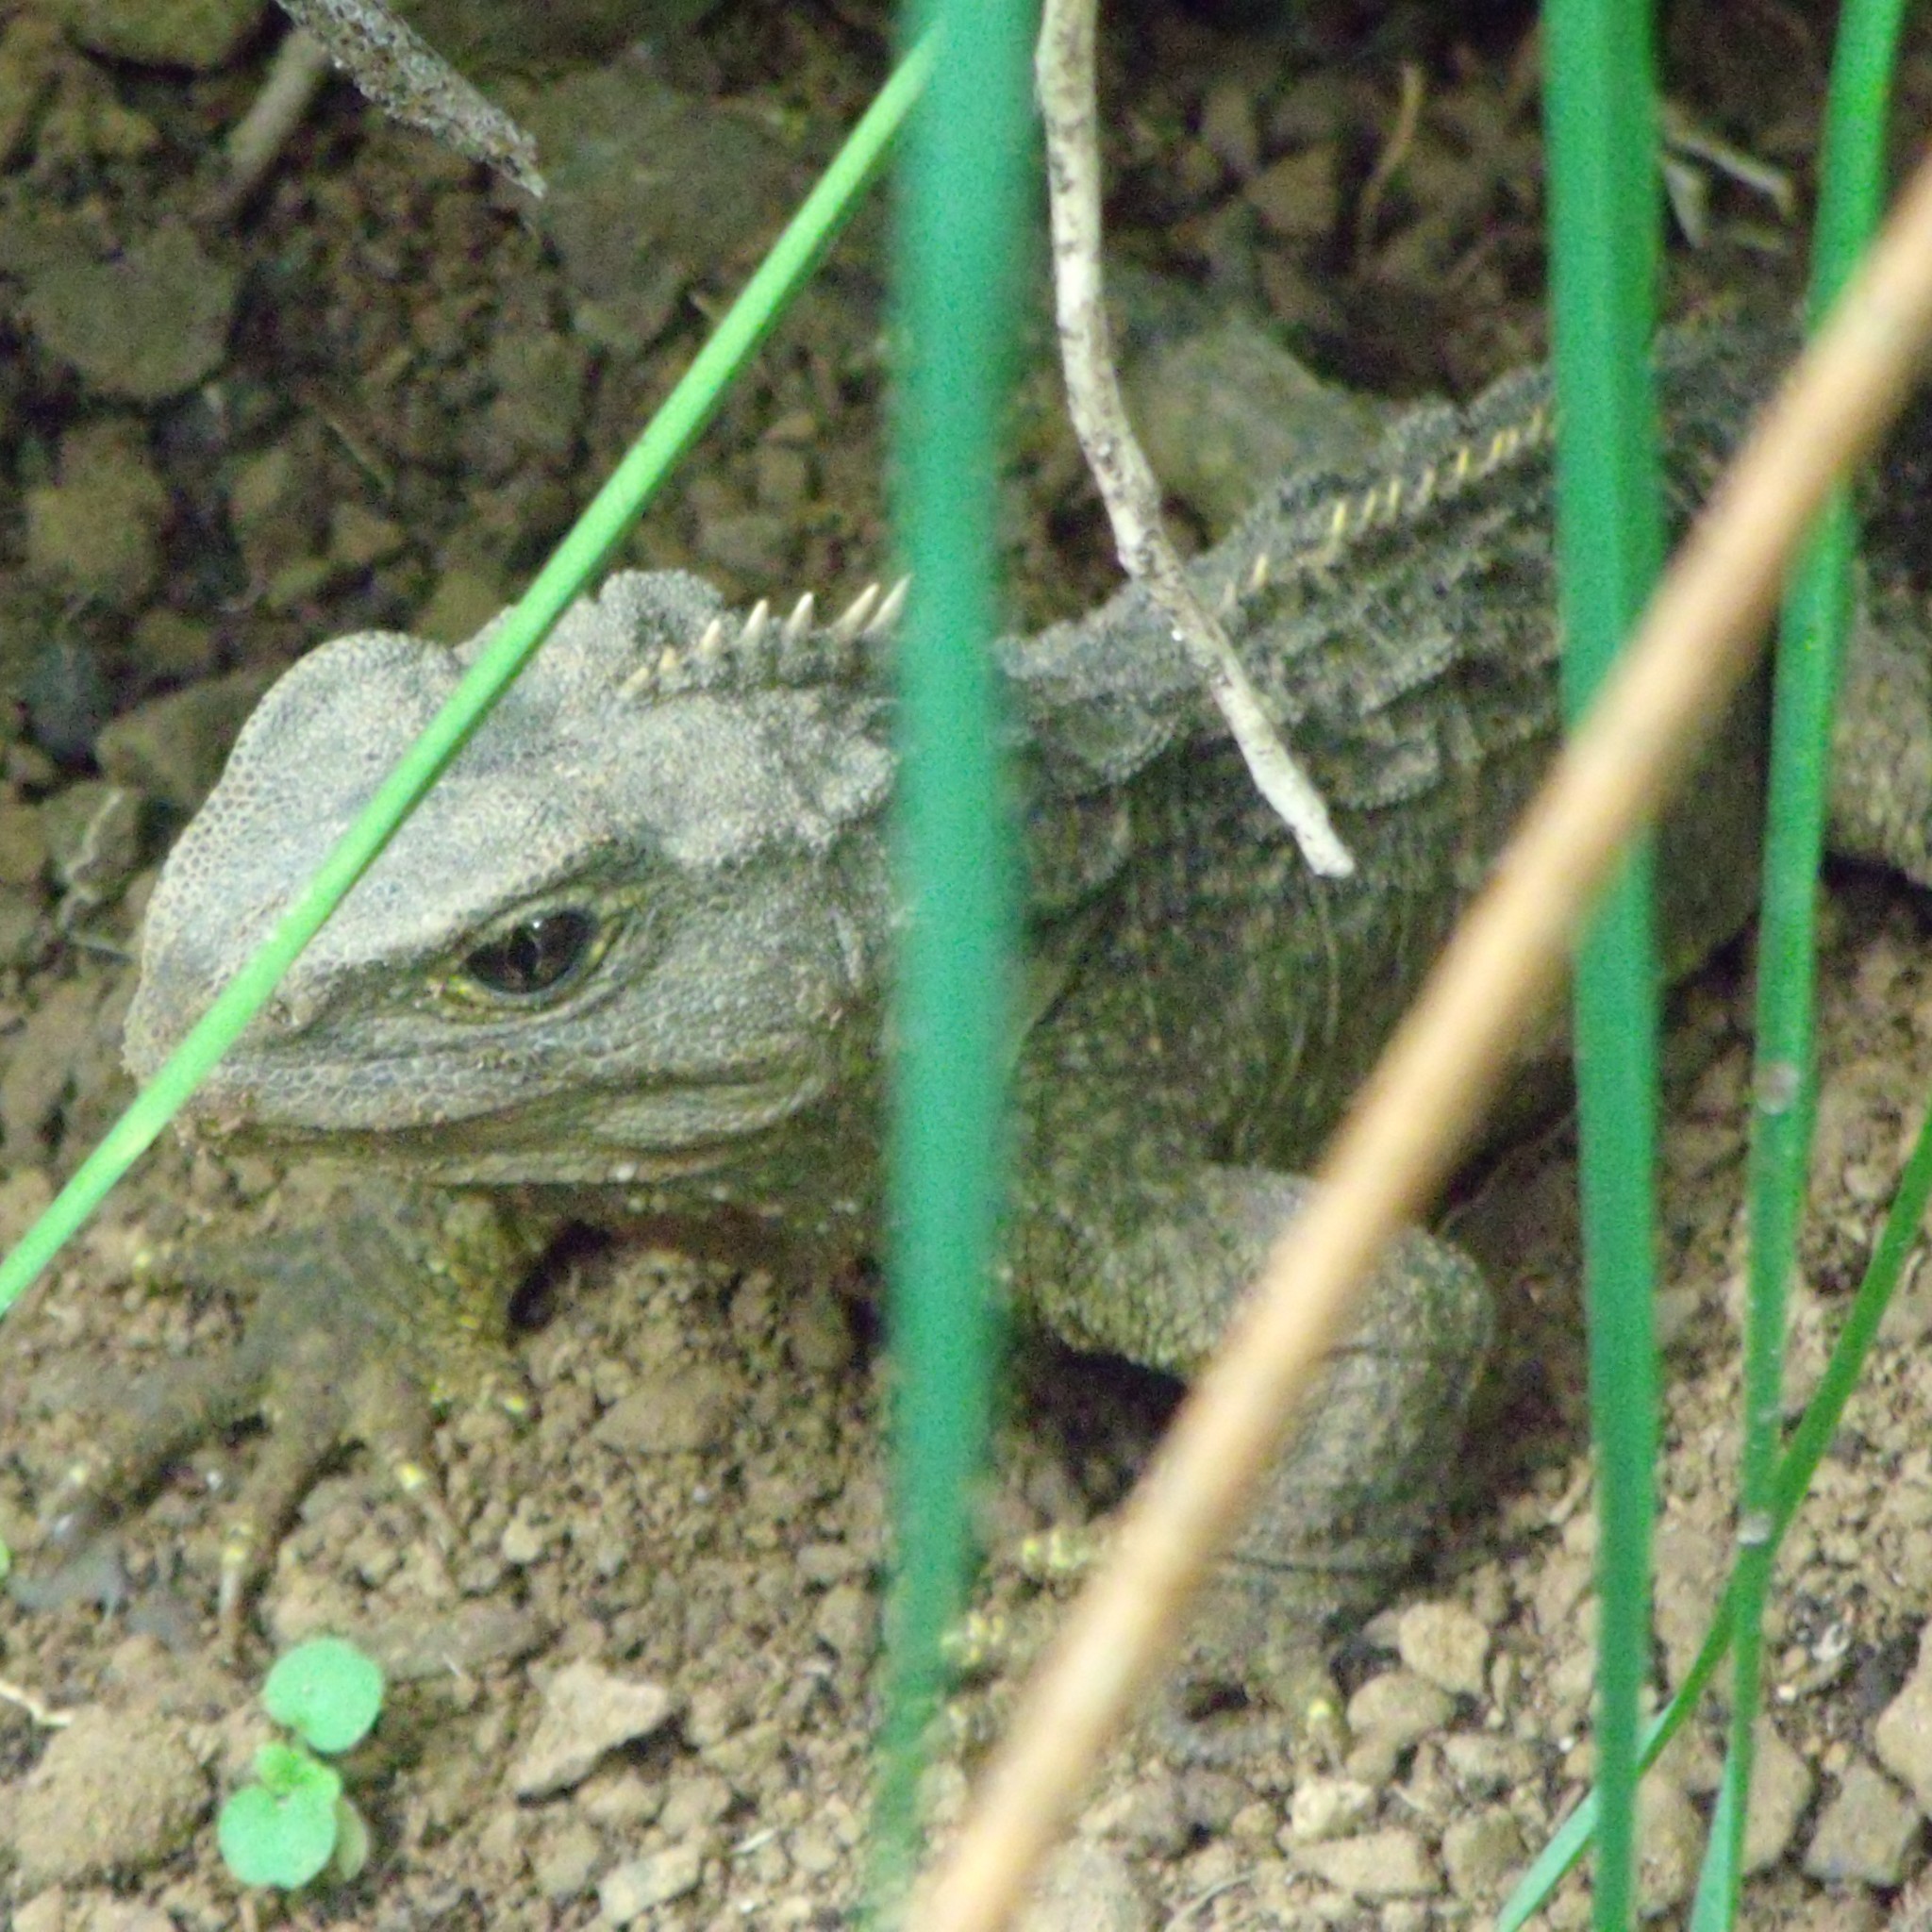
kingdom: Animalia
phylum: Chordata
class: Sphenodontia
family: Sphenodontidae
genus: Sphenodon
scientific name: Sphenodon punctatus
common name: Tuatara
